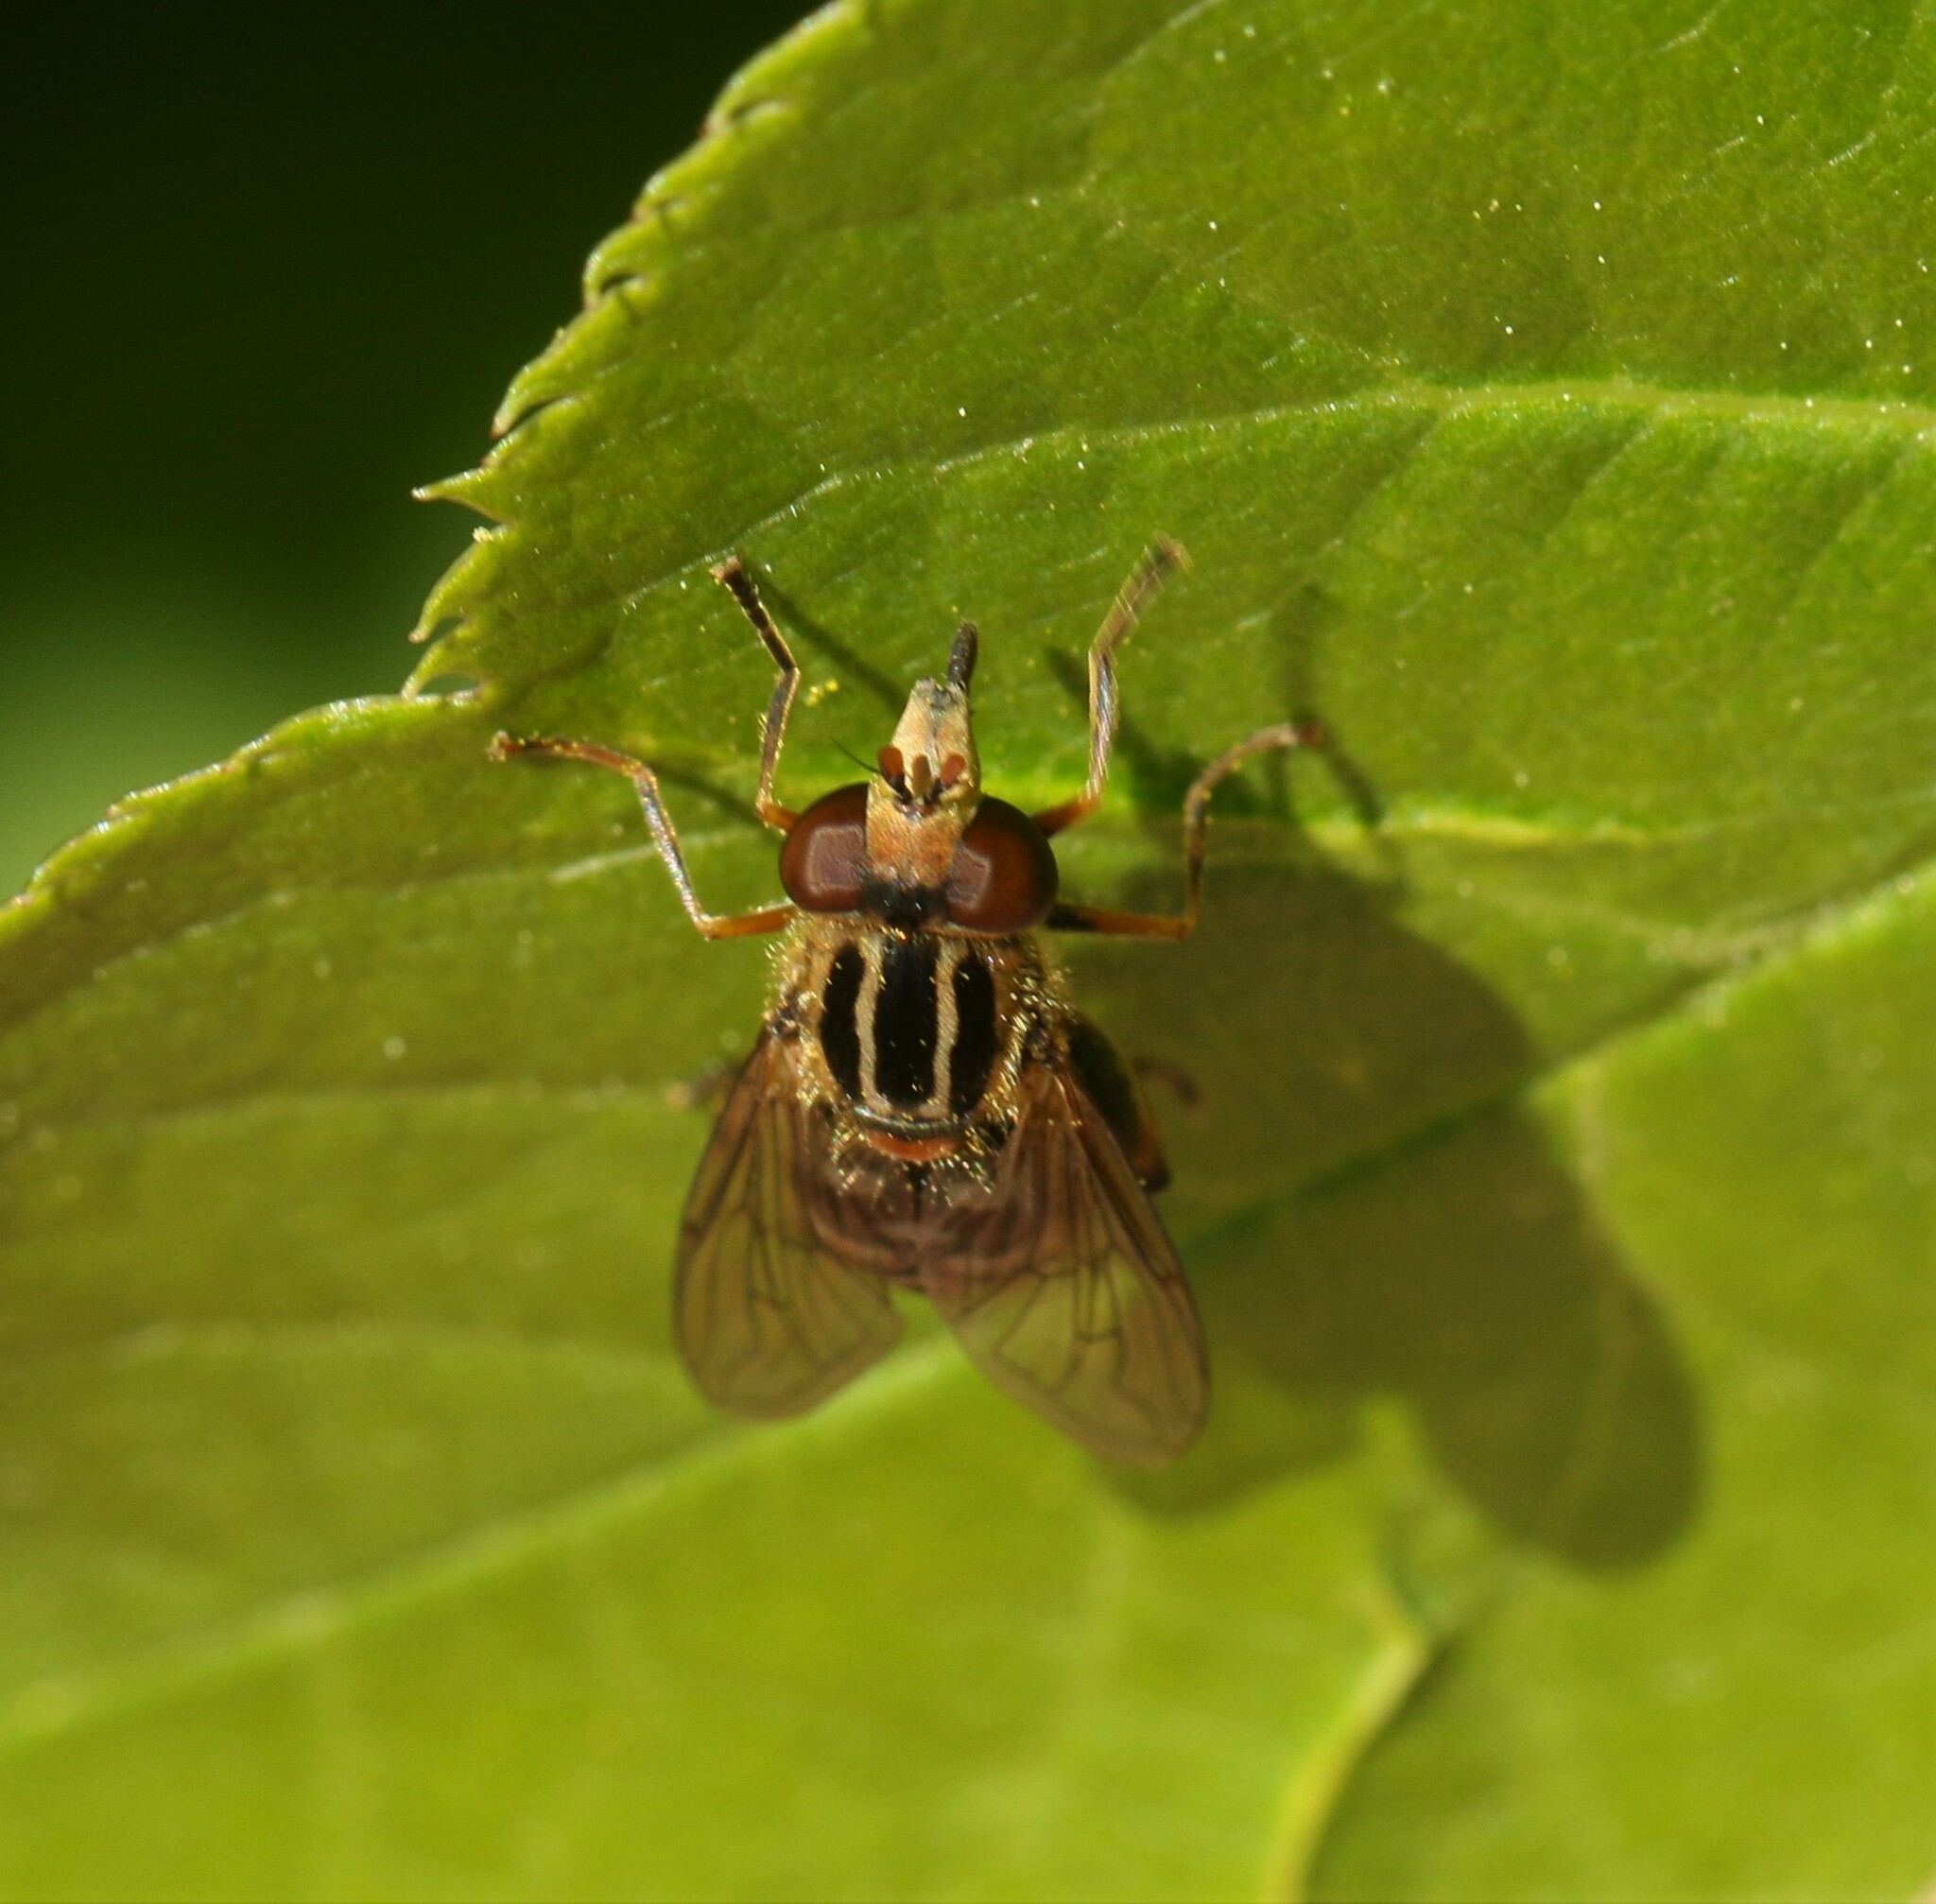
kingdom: Animalia
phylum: Arthropoda
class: Insecta
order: Diptera
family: Syrphidae
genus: Eurimyia
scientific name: Eurimyia stipatus
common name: Long-nosed swamp fly
